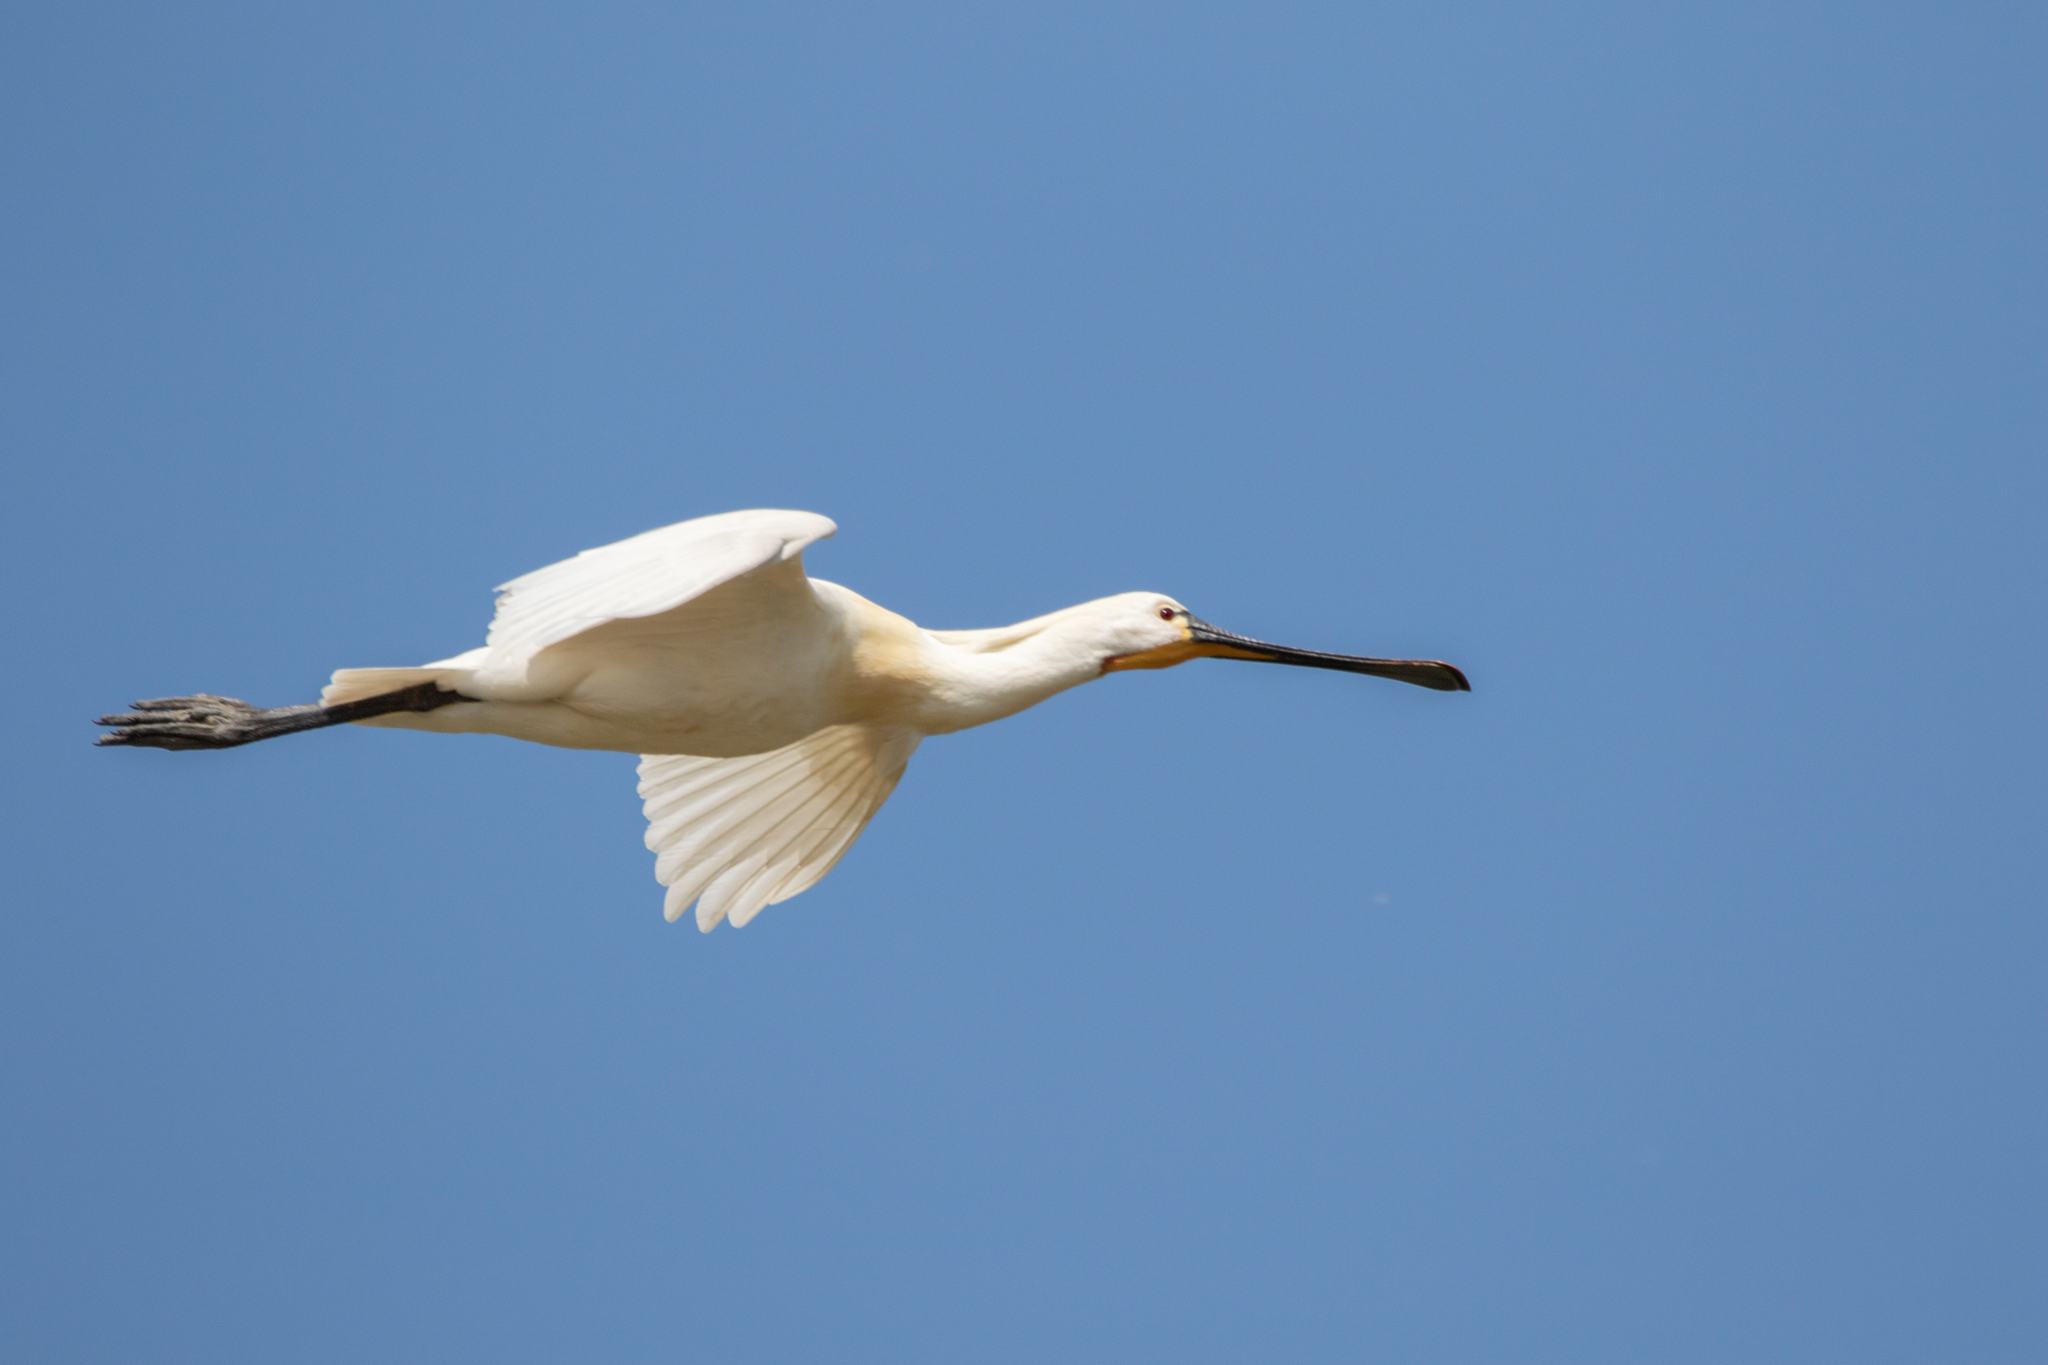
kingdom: Animalia
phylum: Chordata
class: Aves
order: Pelecaniformes
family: Threskiornithidae
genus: Platalea
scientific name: Platalea leucorodia
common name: Eurasian spoonbill
